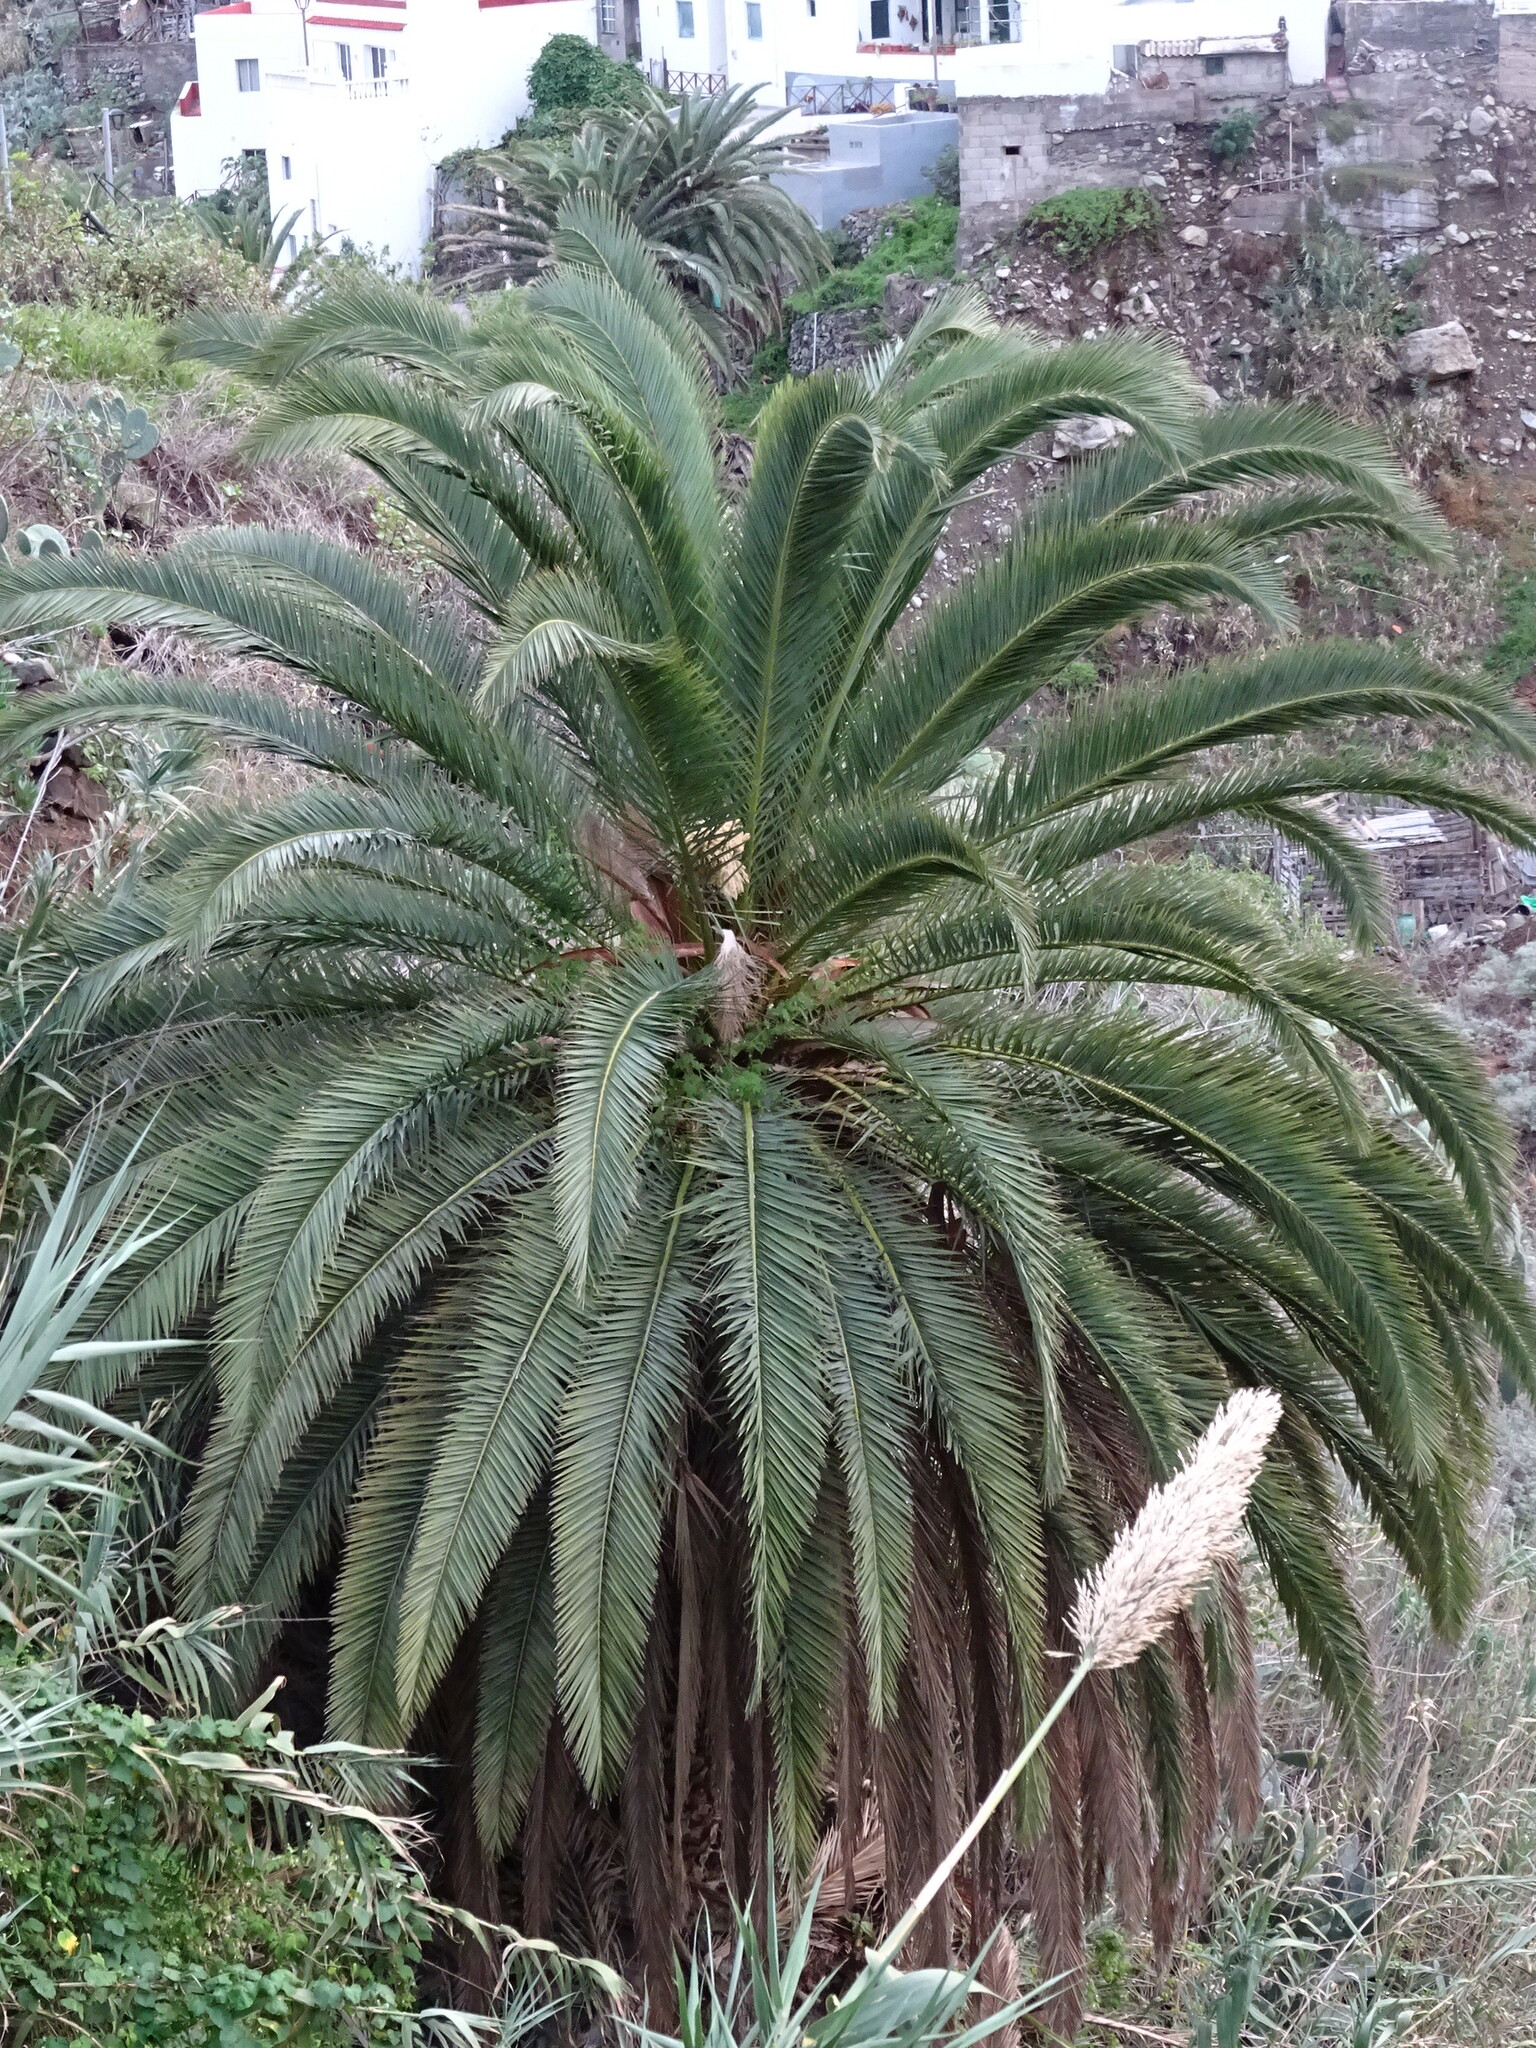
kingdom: Plantae
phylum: Tracheophyta
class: Liliopsida
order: Arecales
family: Arecaceae
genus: Phoenix
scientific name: Phoenix canariensis
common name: Canary island date palm
